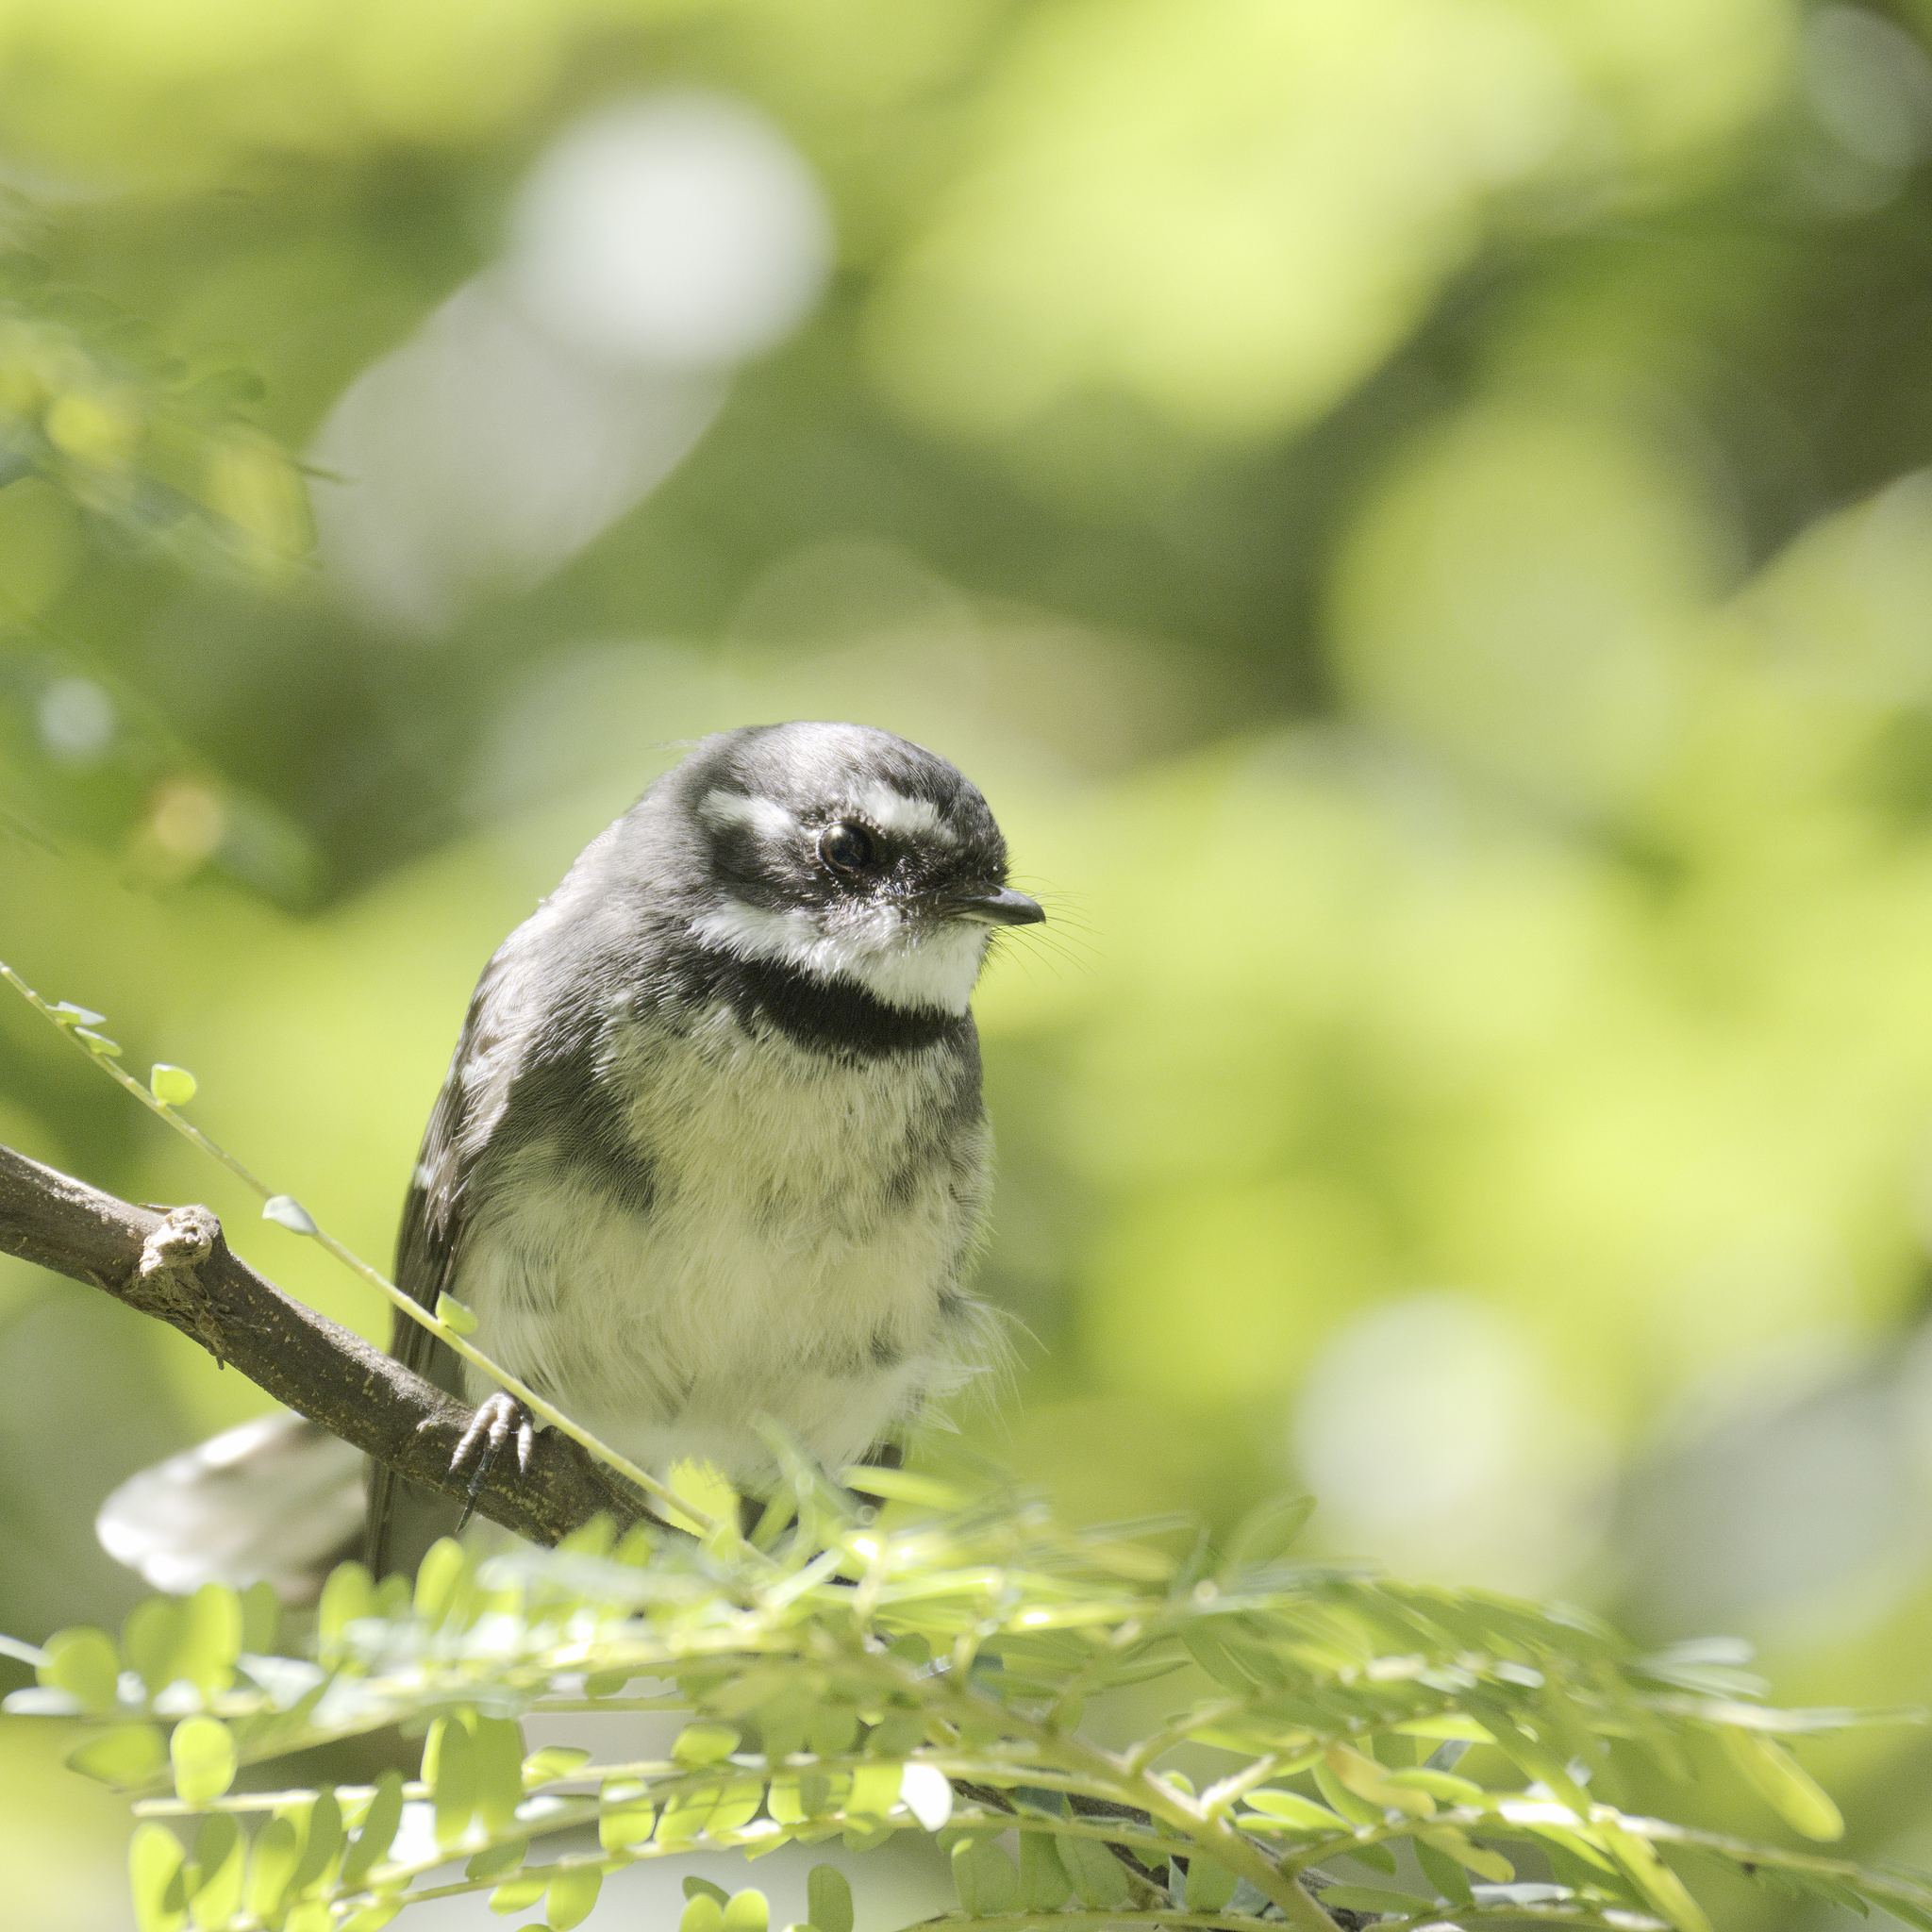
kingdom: Animalia
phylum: Chordata
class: Aves
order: Passeriformes
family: Rhipiduridae
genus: Rhipidura
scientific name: Rhipidura albiscapa
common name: Grey fantail
